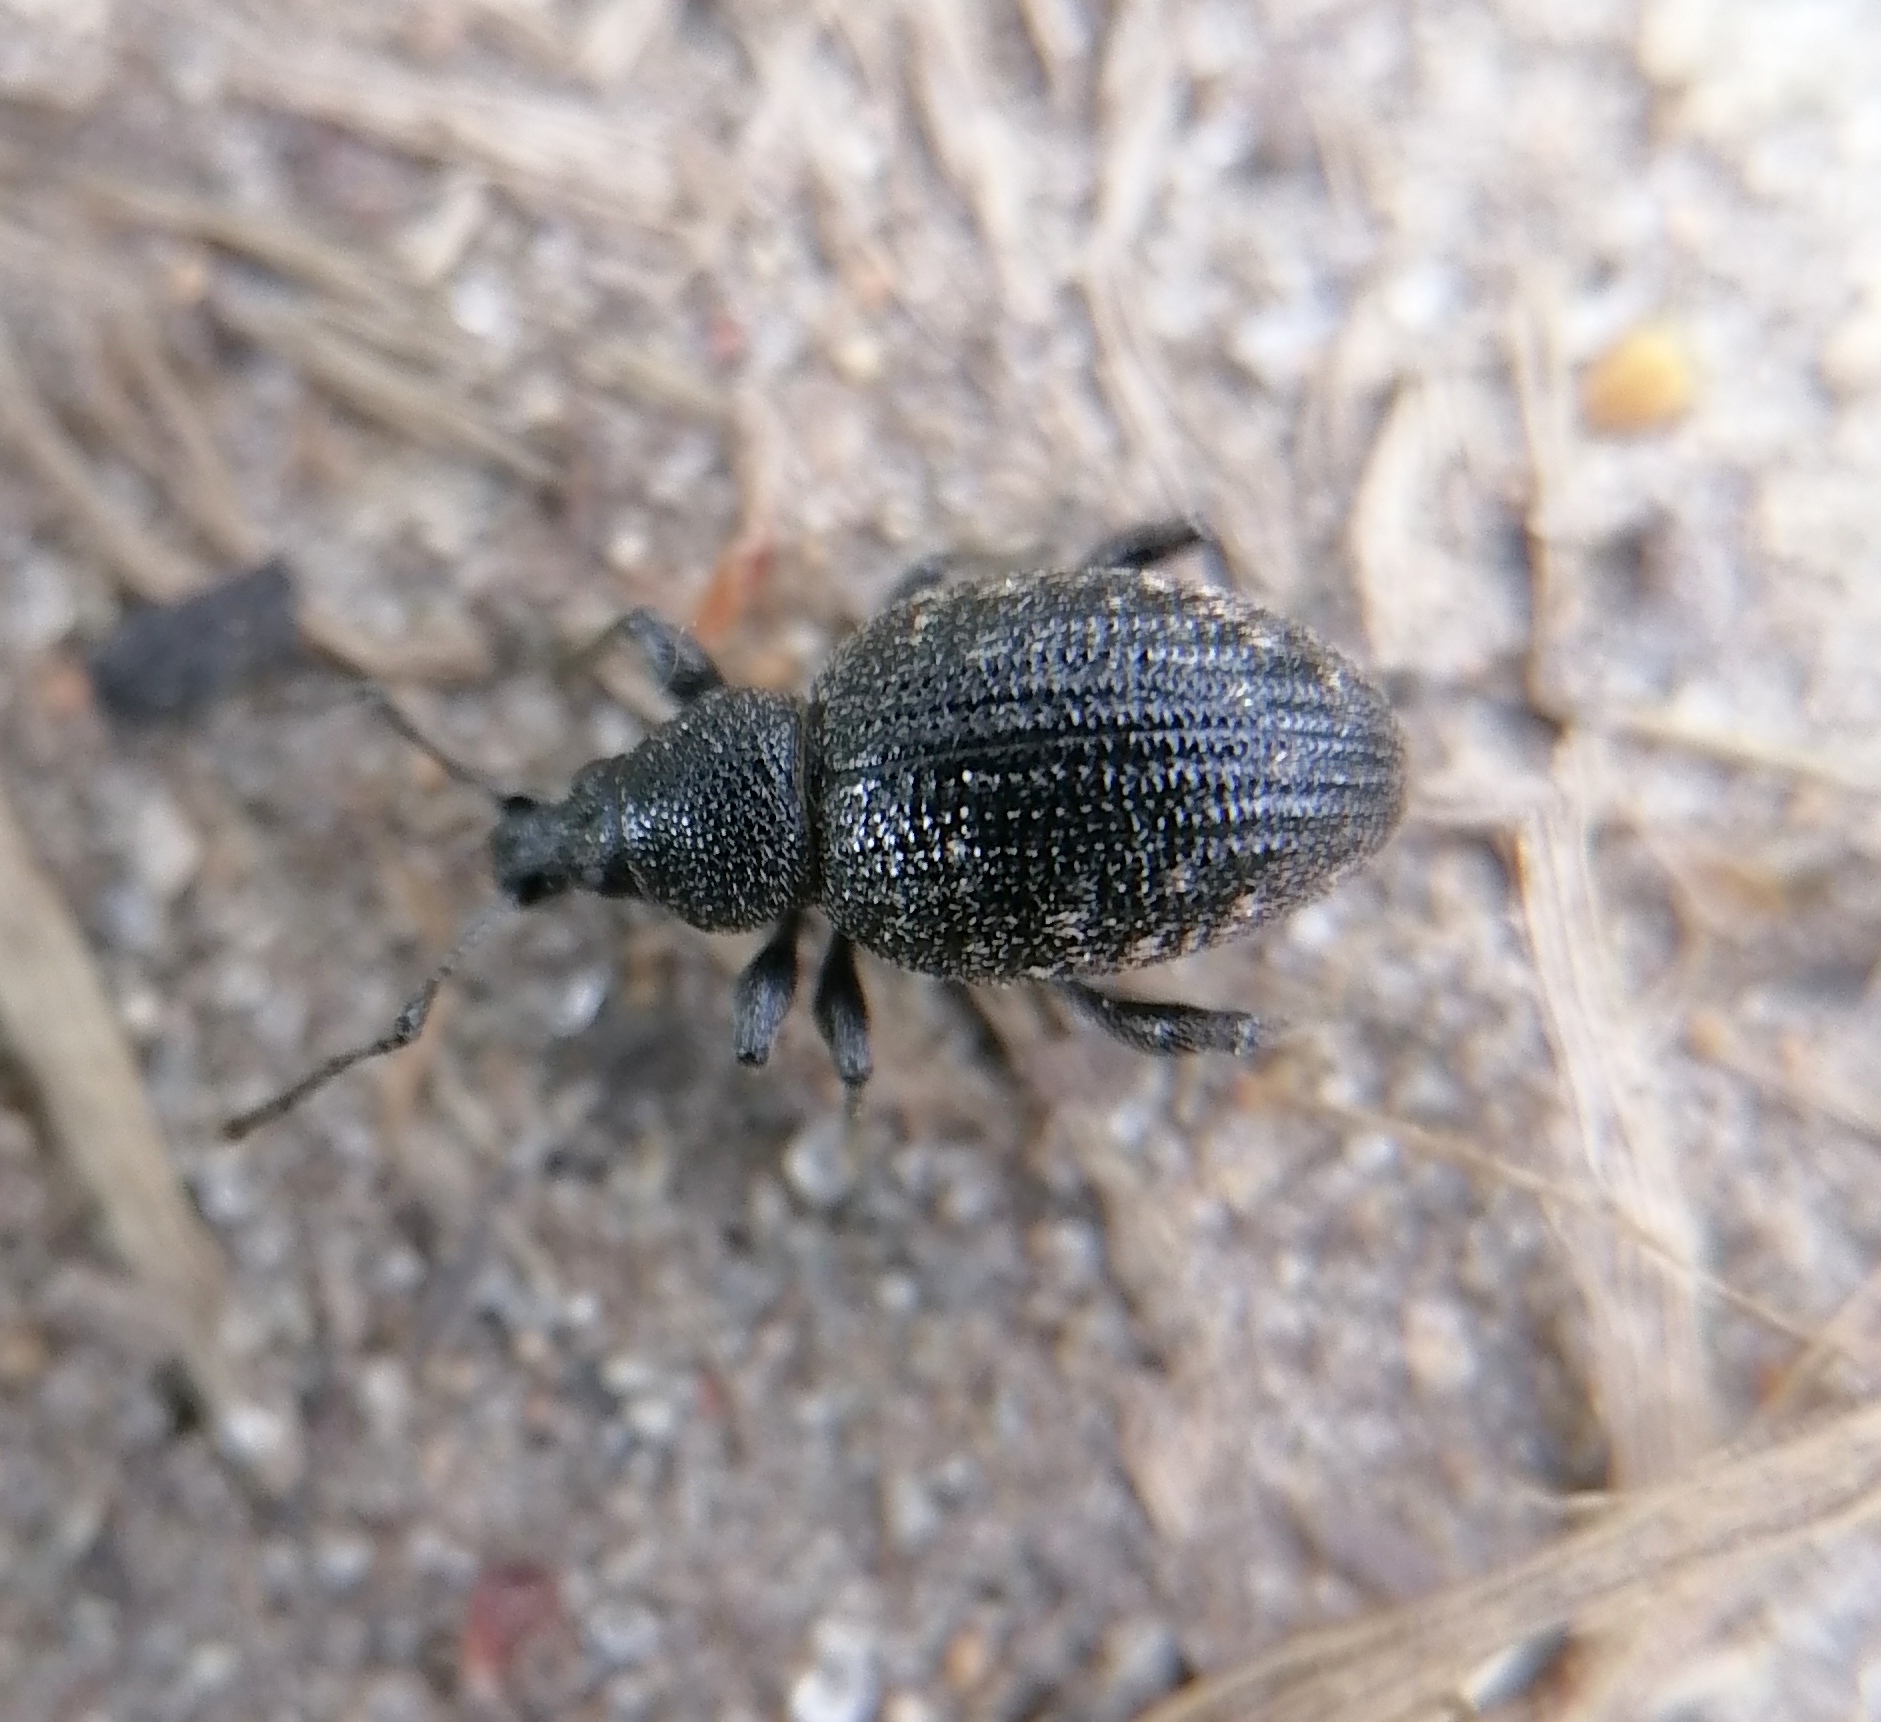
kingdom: Animalia
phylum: Arthropoda
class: Insecta
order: Coleoptera
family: Curculionidae
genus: Otiorhynchus
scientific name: Otiorhynchus tristis
